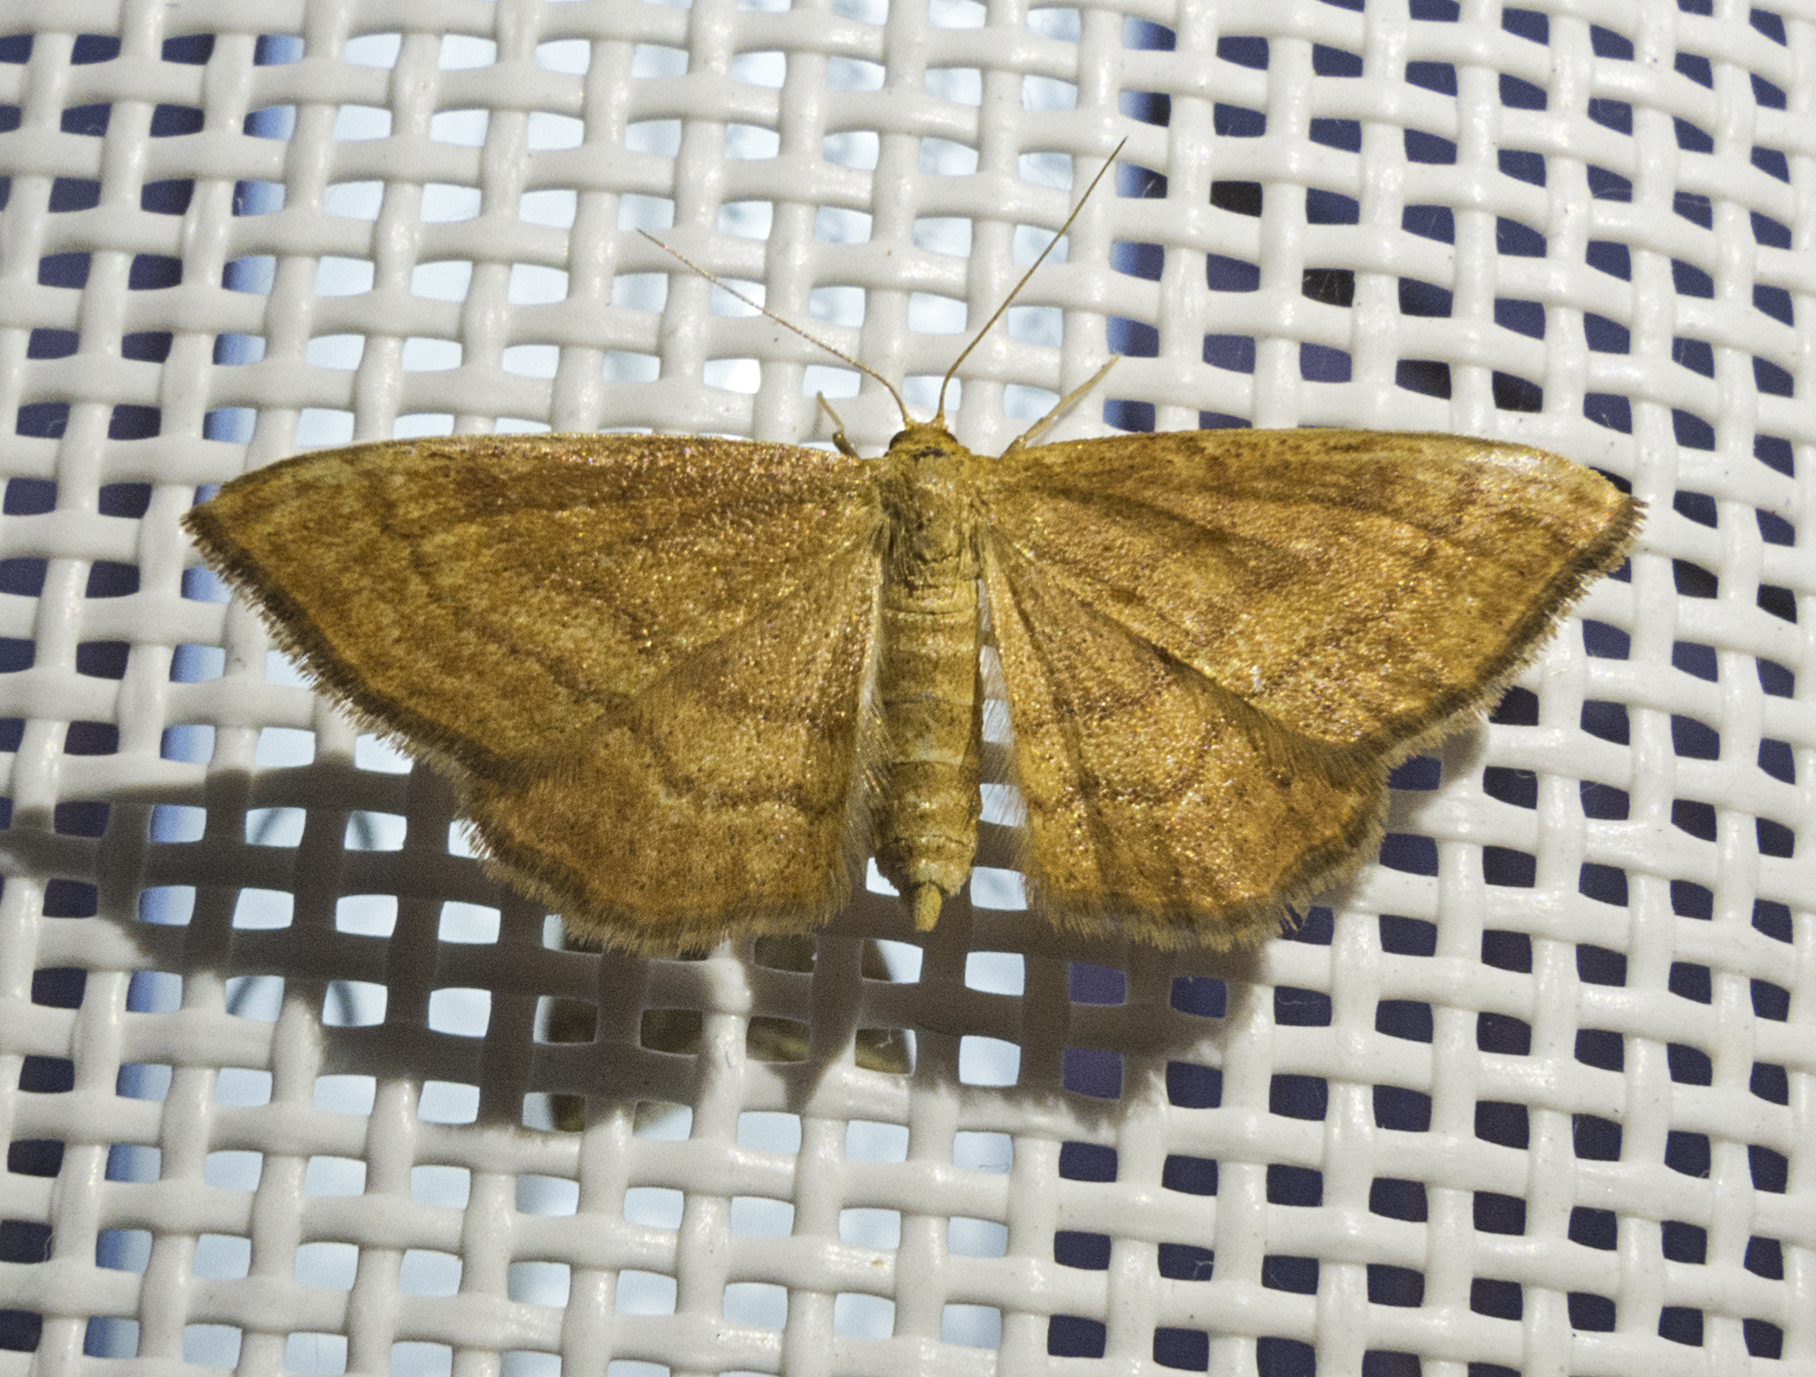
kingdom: Animalia
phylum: Arthropoda
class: Insecta
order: Lepidoptera
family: Geometridae
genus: Idaea
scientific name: Idaea ochrata
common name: Bright wave
